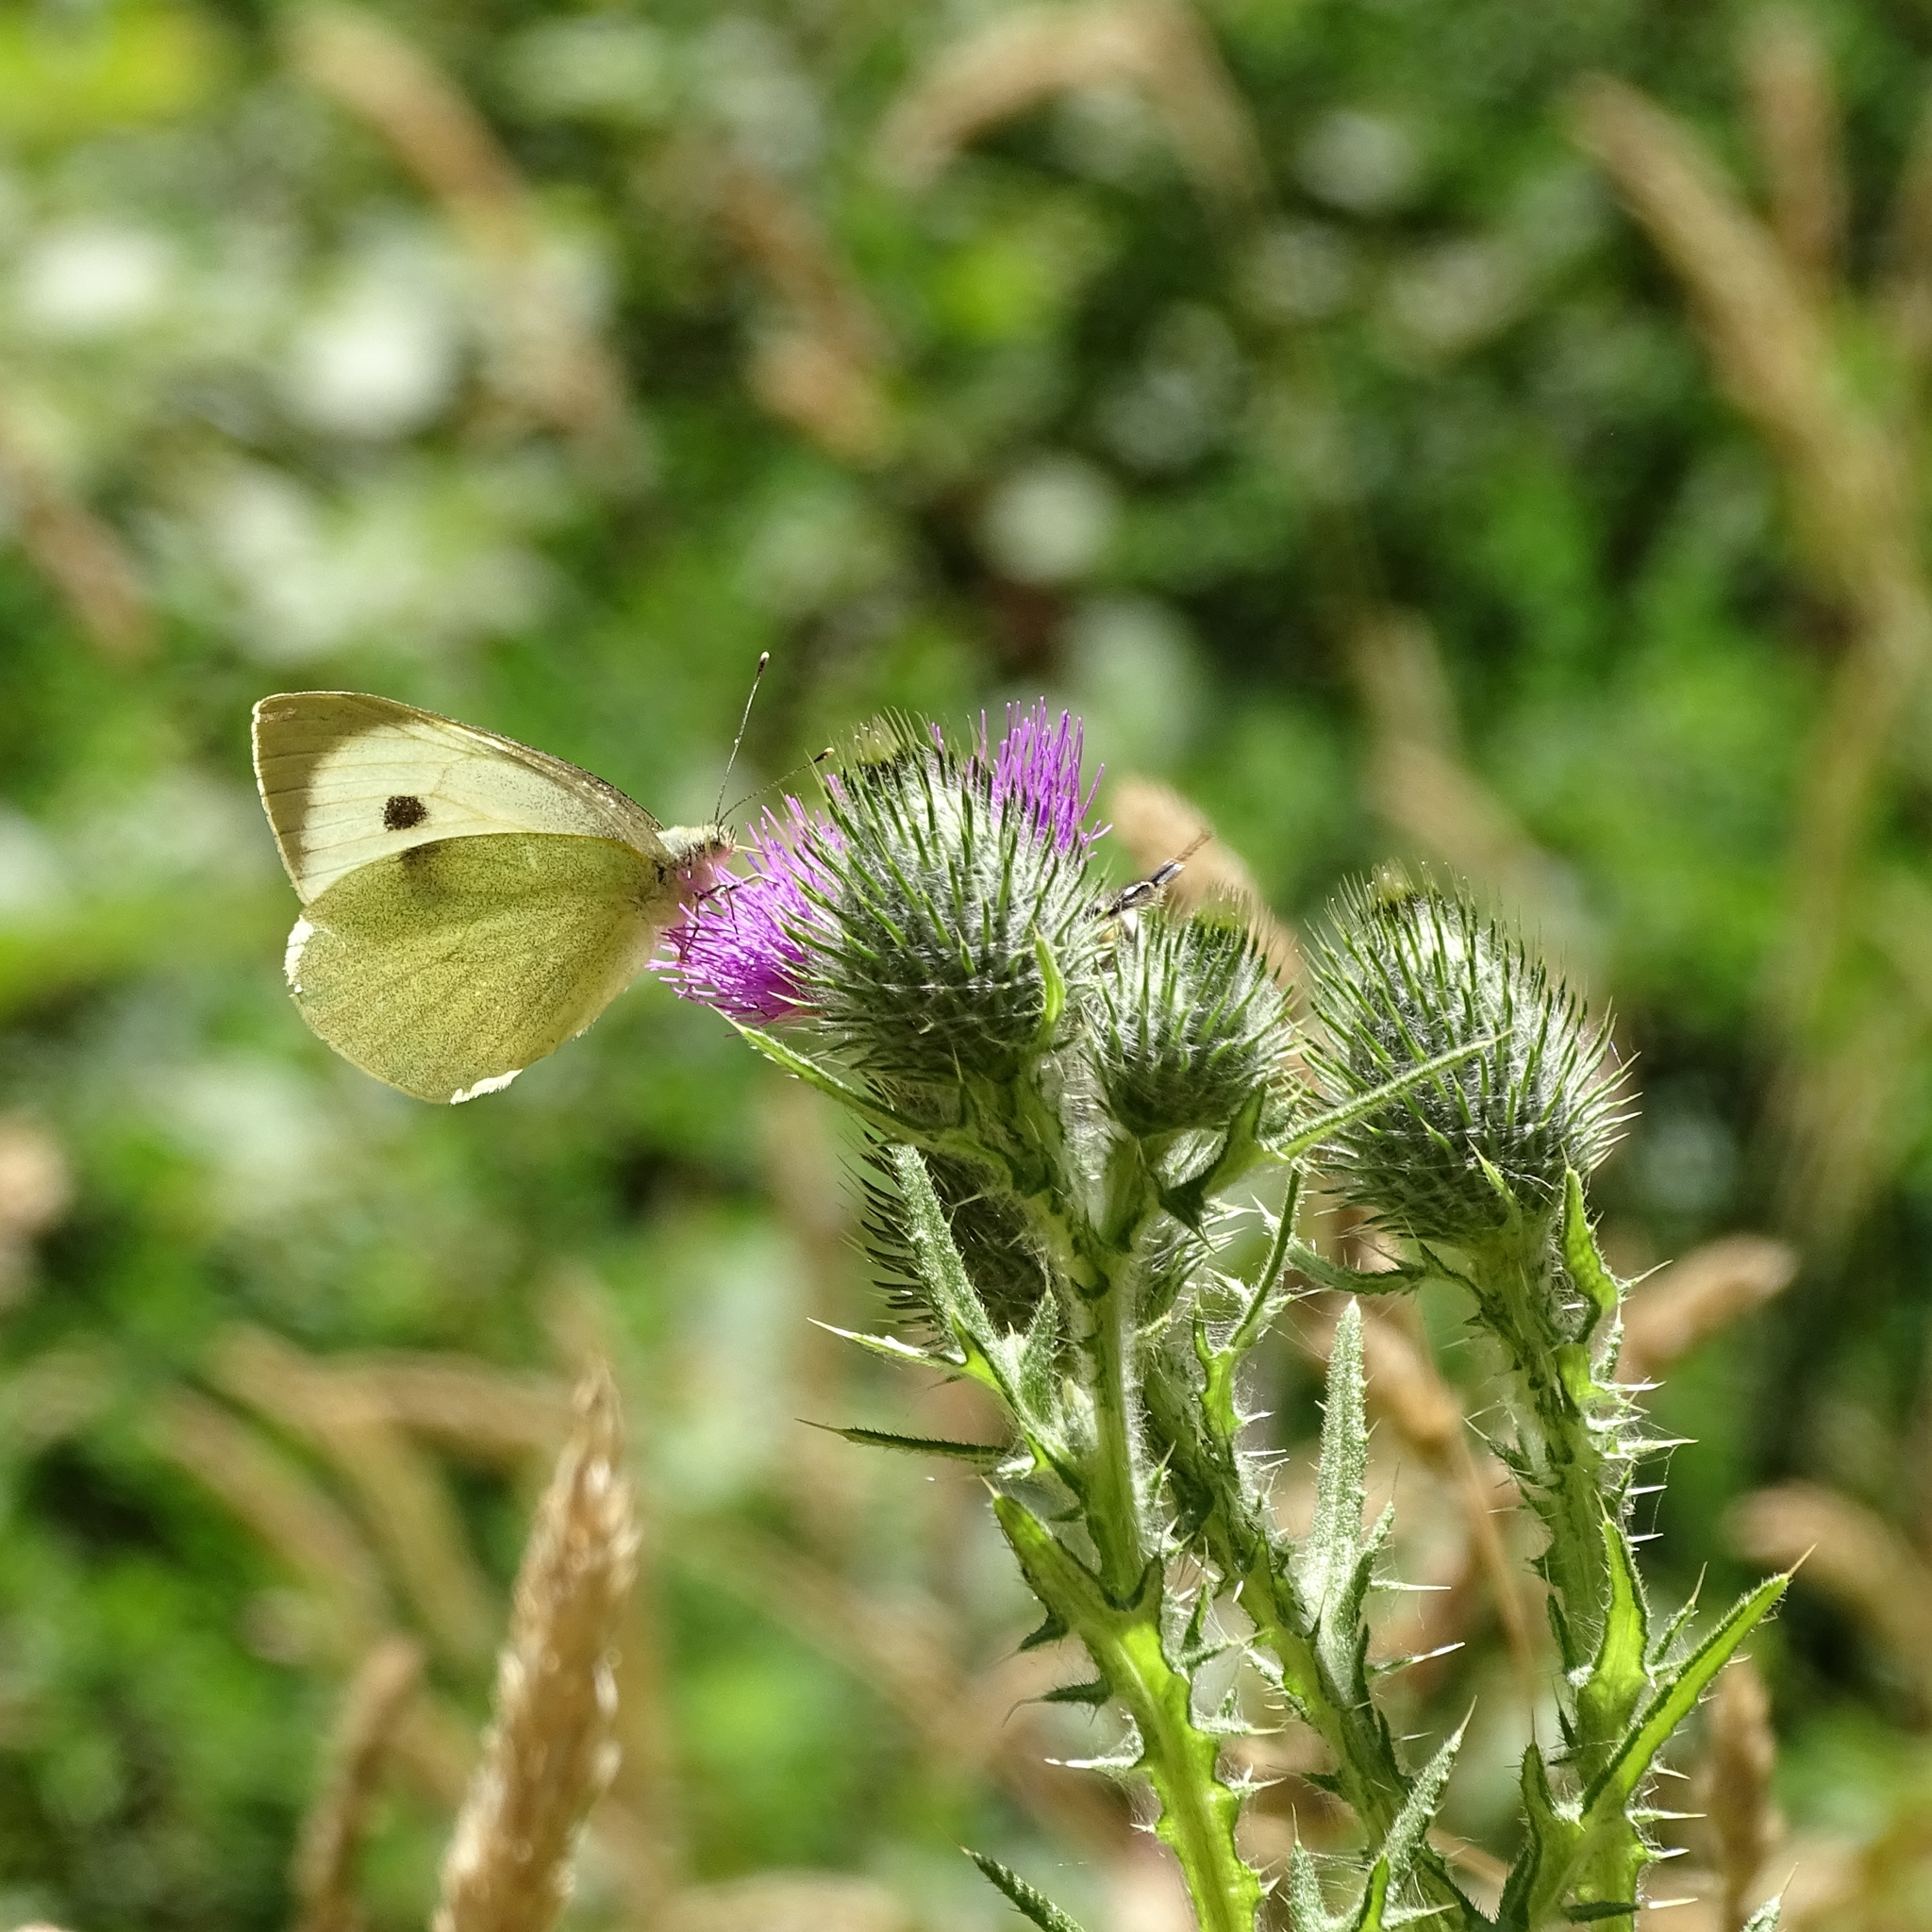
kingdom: Animalia
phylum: Arthropoda
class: Insecta
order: Lepidoptera
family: Pieridae
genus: Pieris
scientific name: Pieris brassicae
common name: Large white
